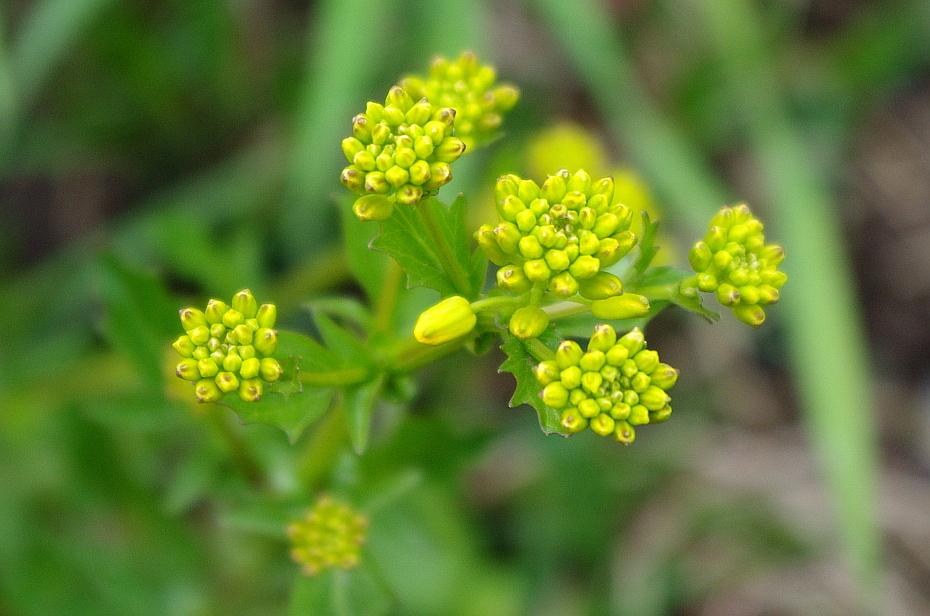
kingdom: Plantae
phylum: Tracheophyta
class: Magnoliopsida
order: Brassicales
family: Brassicaceae
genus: Barbarea
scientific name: Barbarea vulgaris
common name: Cressy-greens
